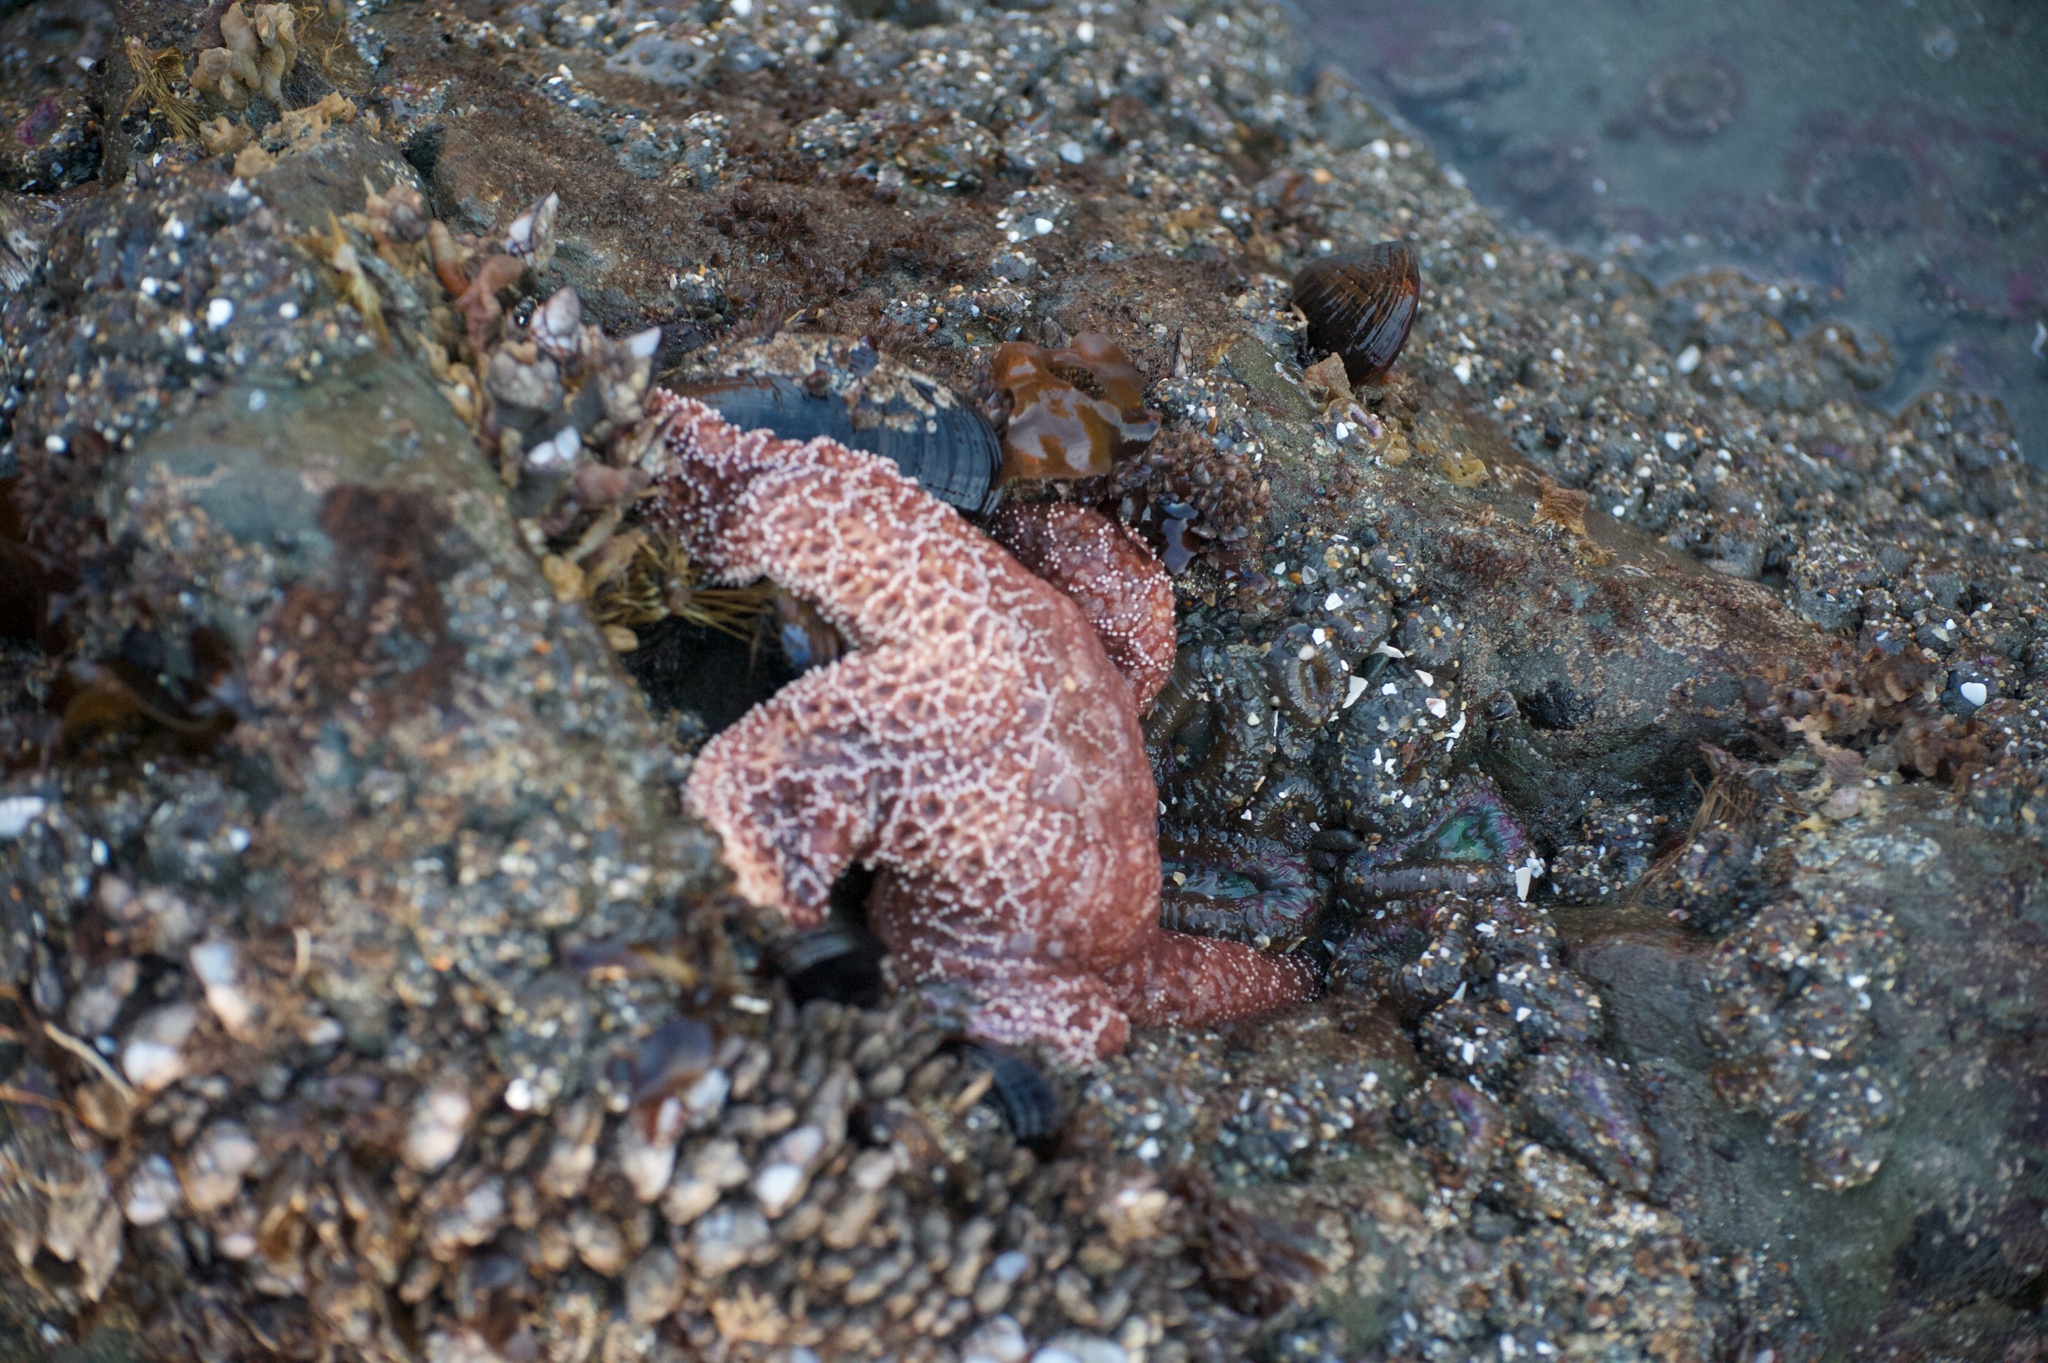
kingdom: Animalia
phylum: Echinodermata
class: Asteroidea
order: Forcipulatida
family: Asteriidae
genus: Pisaster
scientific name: Pisaster ochraceus
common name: Ochre stars
